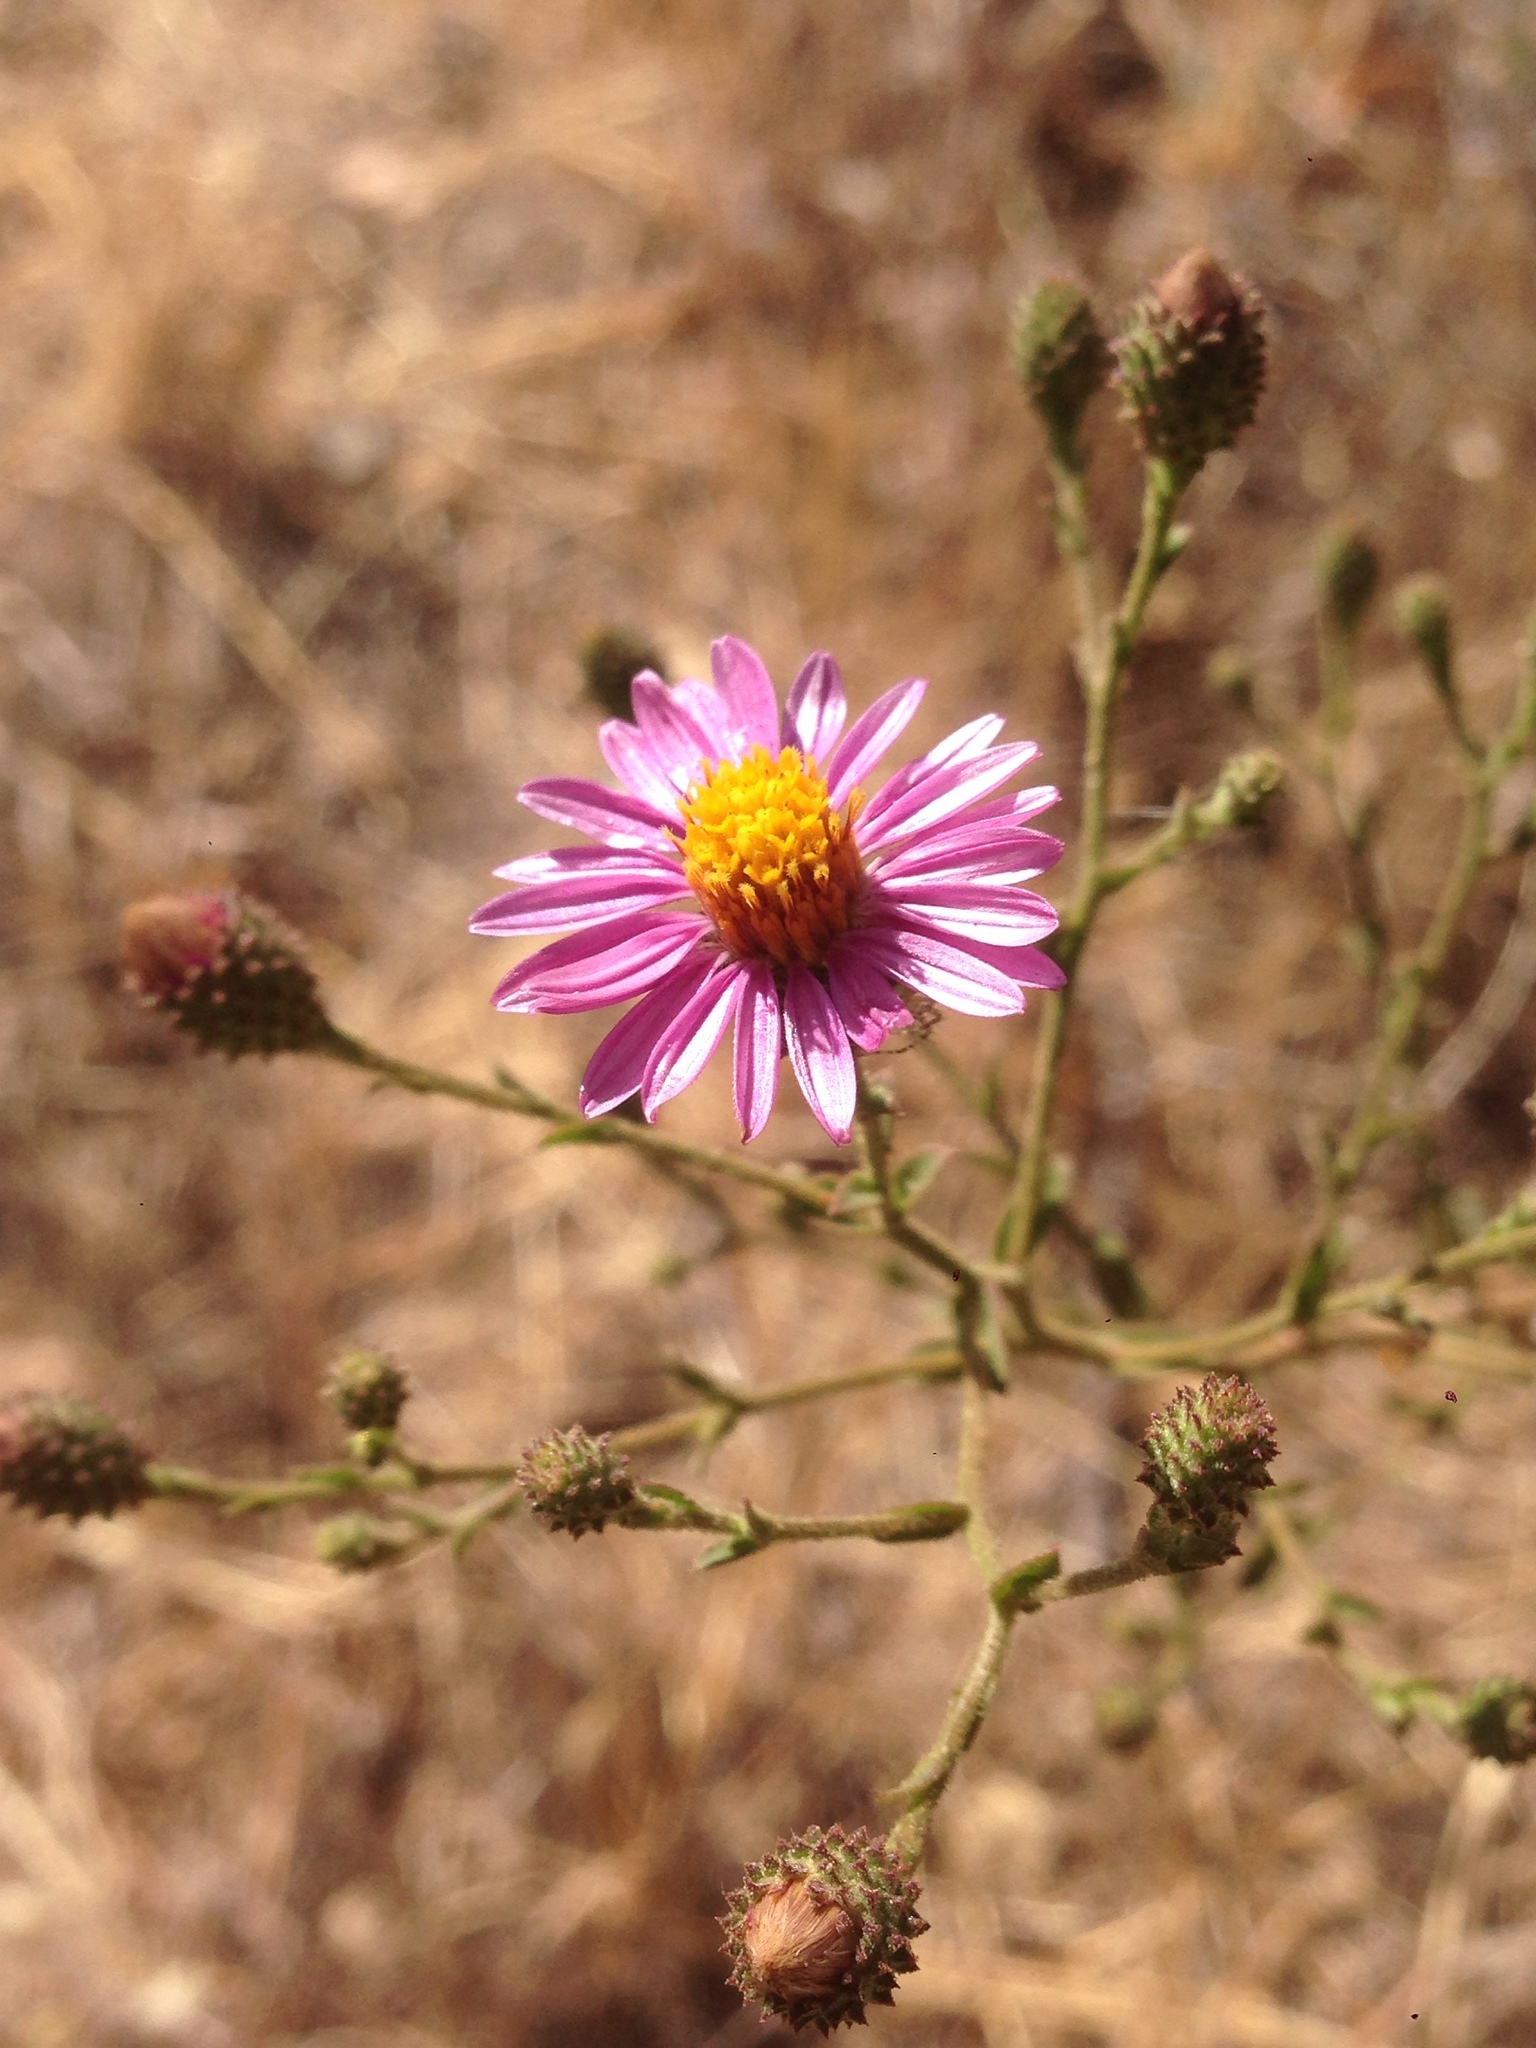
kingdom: Plantae
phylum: Tracheophyta
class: Magnoliopsida
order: Asterales
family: Asteraceae
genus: Corethrogyne
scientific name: Corethrogyne filaginifolia
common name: Sand-aster
